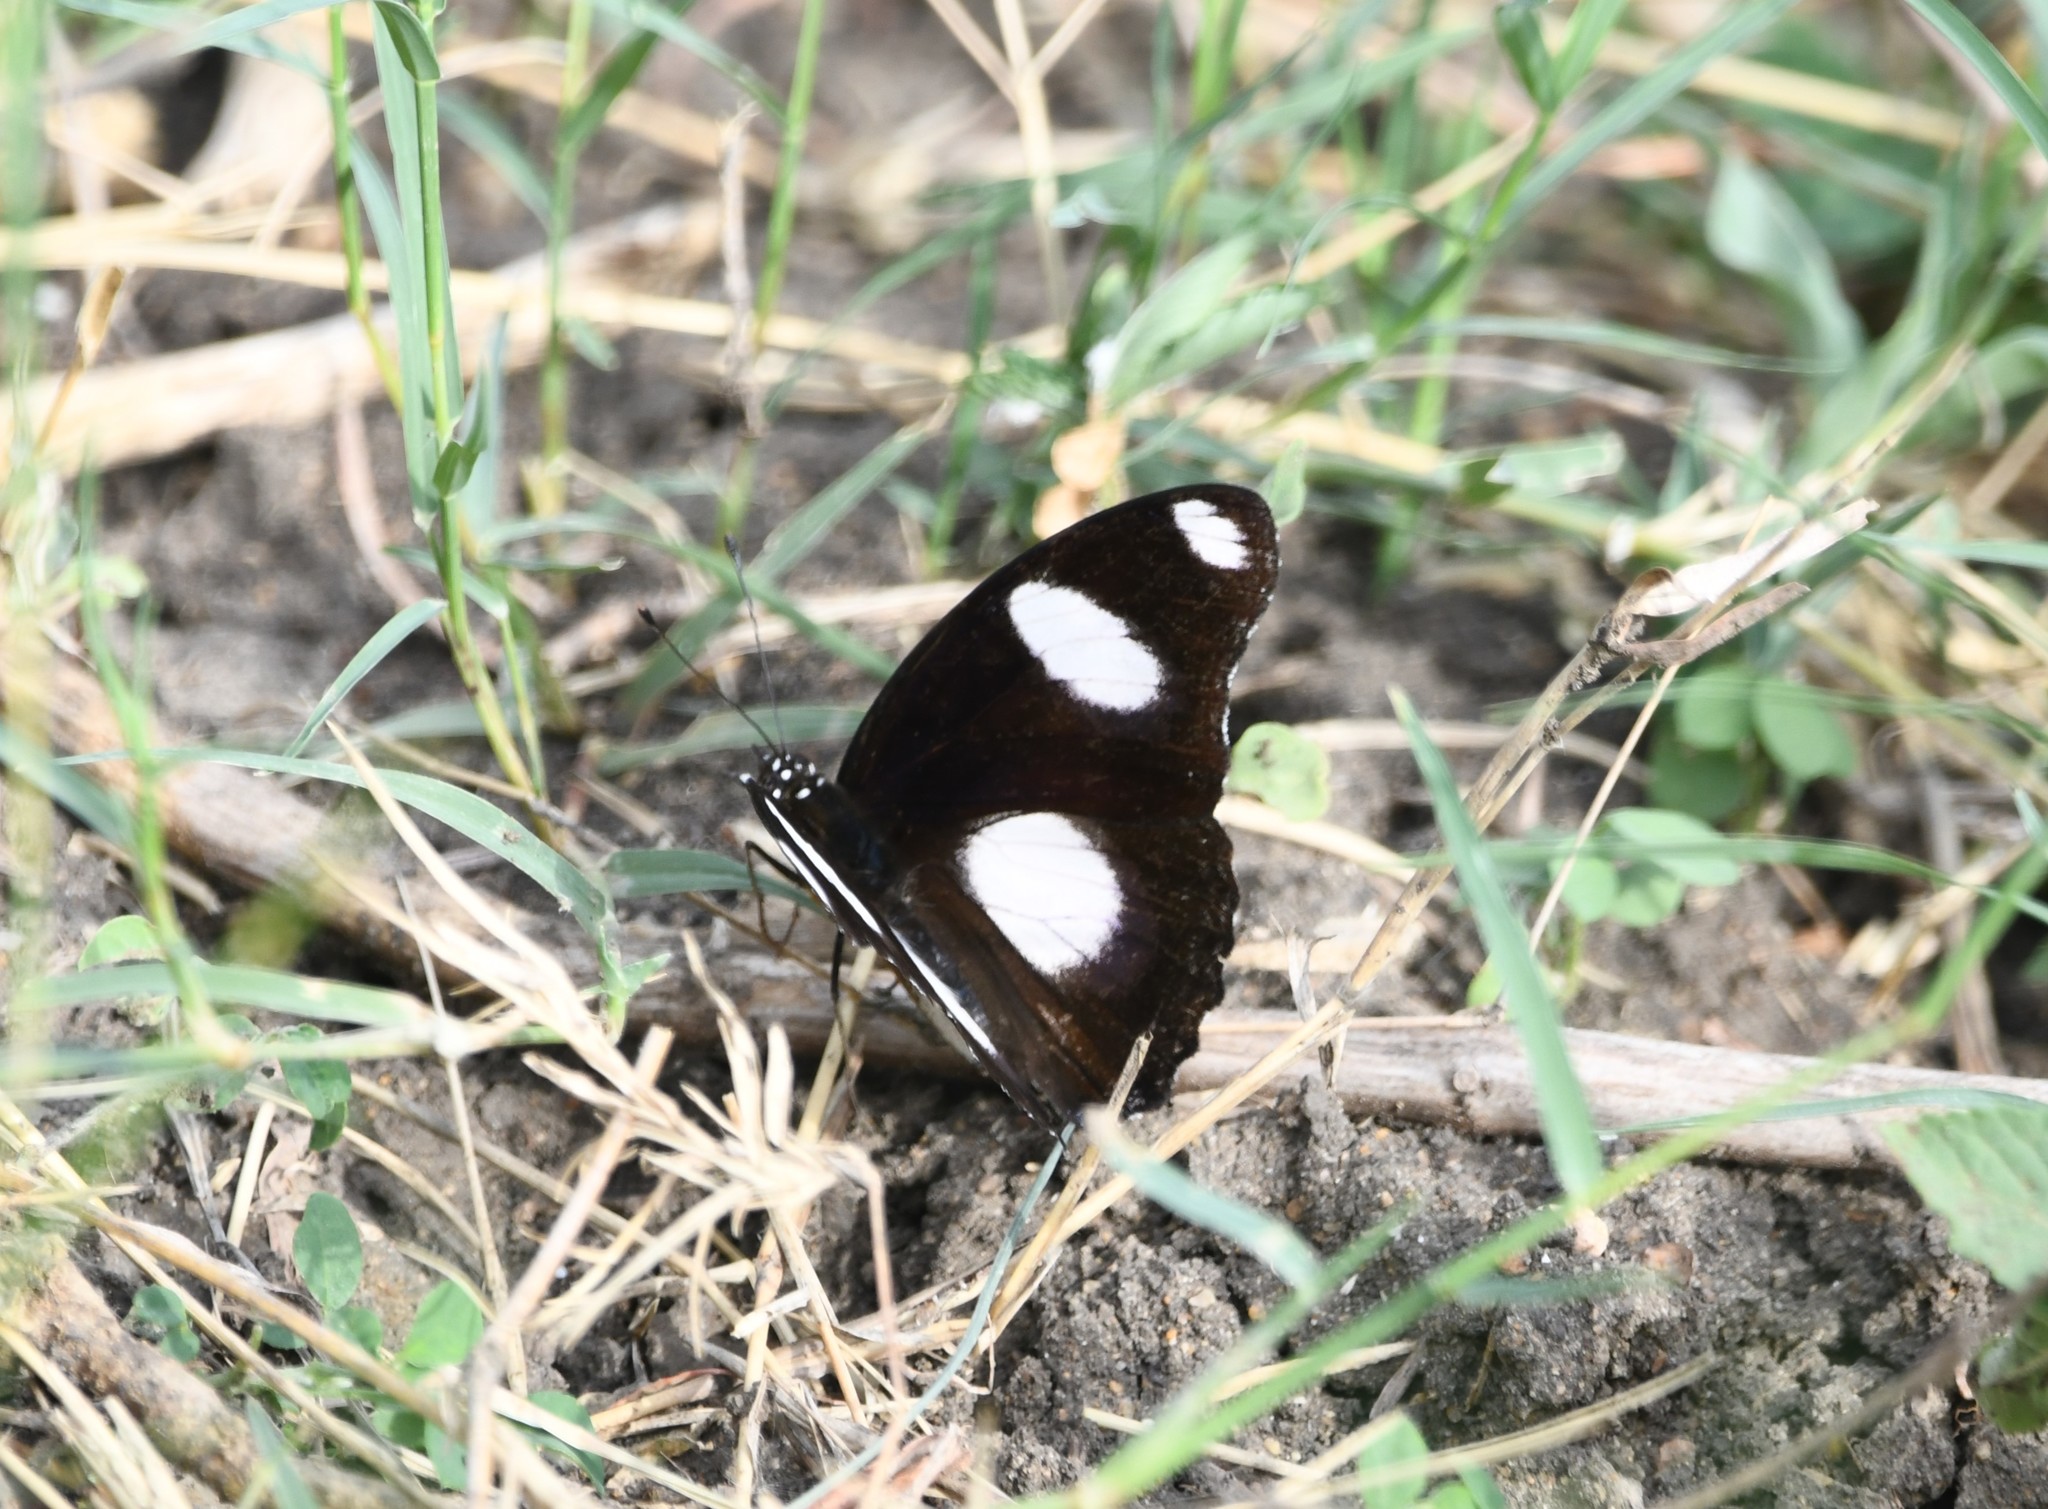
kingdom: Animalia
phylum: Arthropoda
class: Insecta
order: Lepidoptera
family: Nymphalidae
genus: Hypolimnas
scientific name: Hypolimnas misippus
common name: False plain tiger
